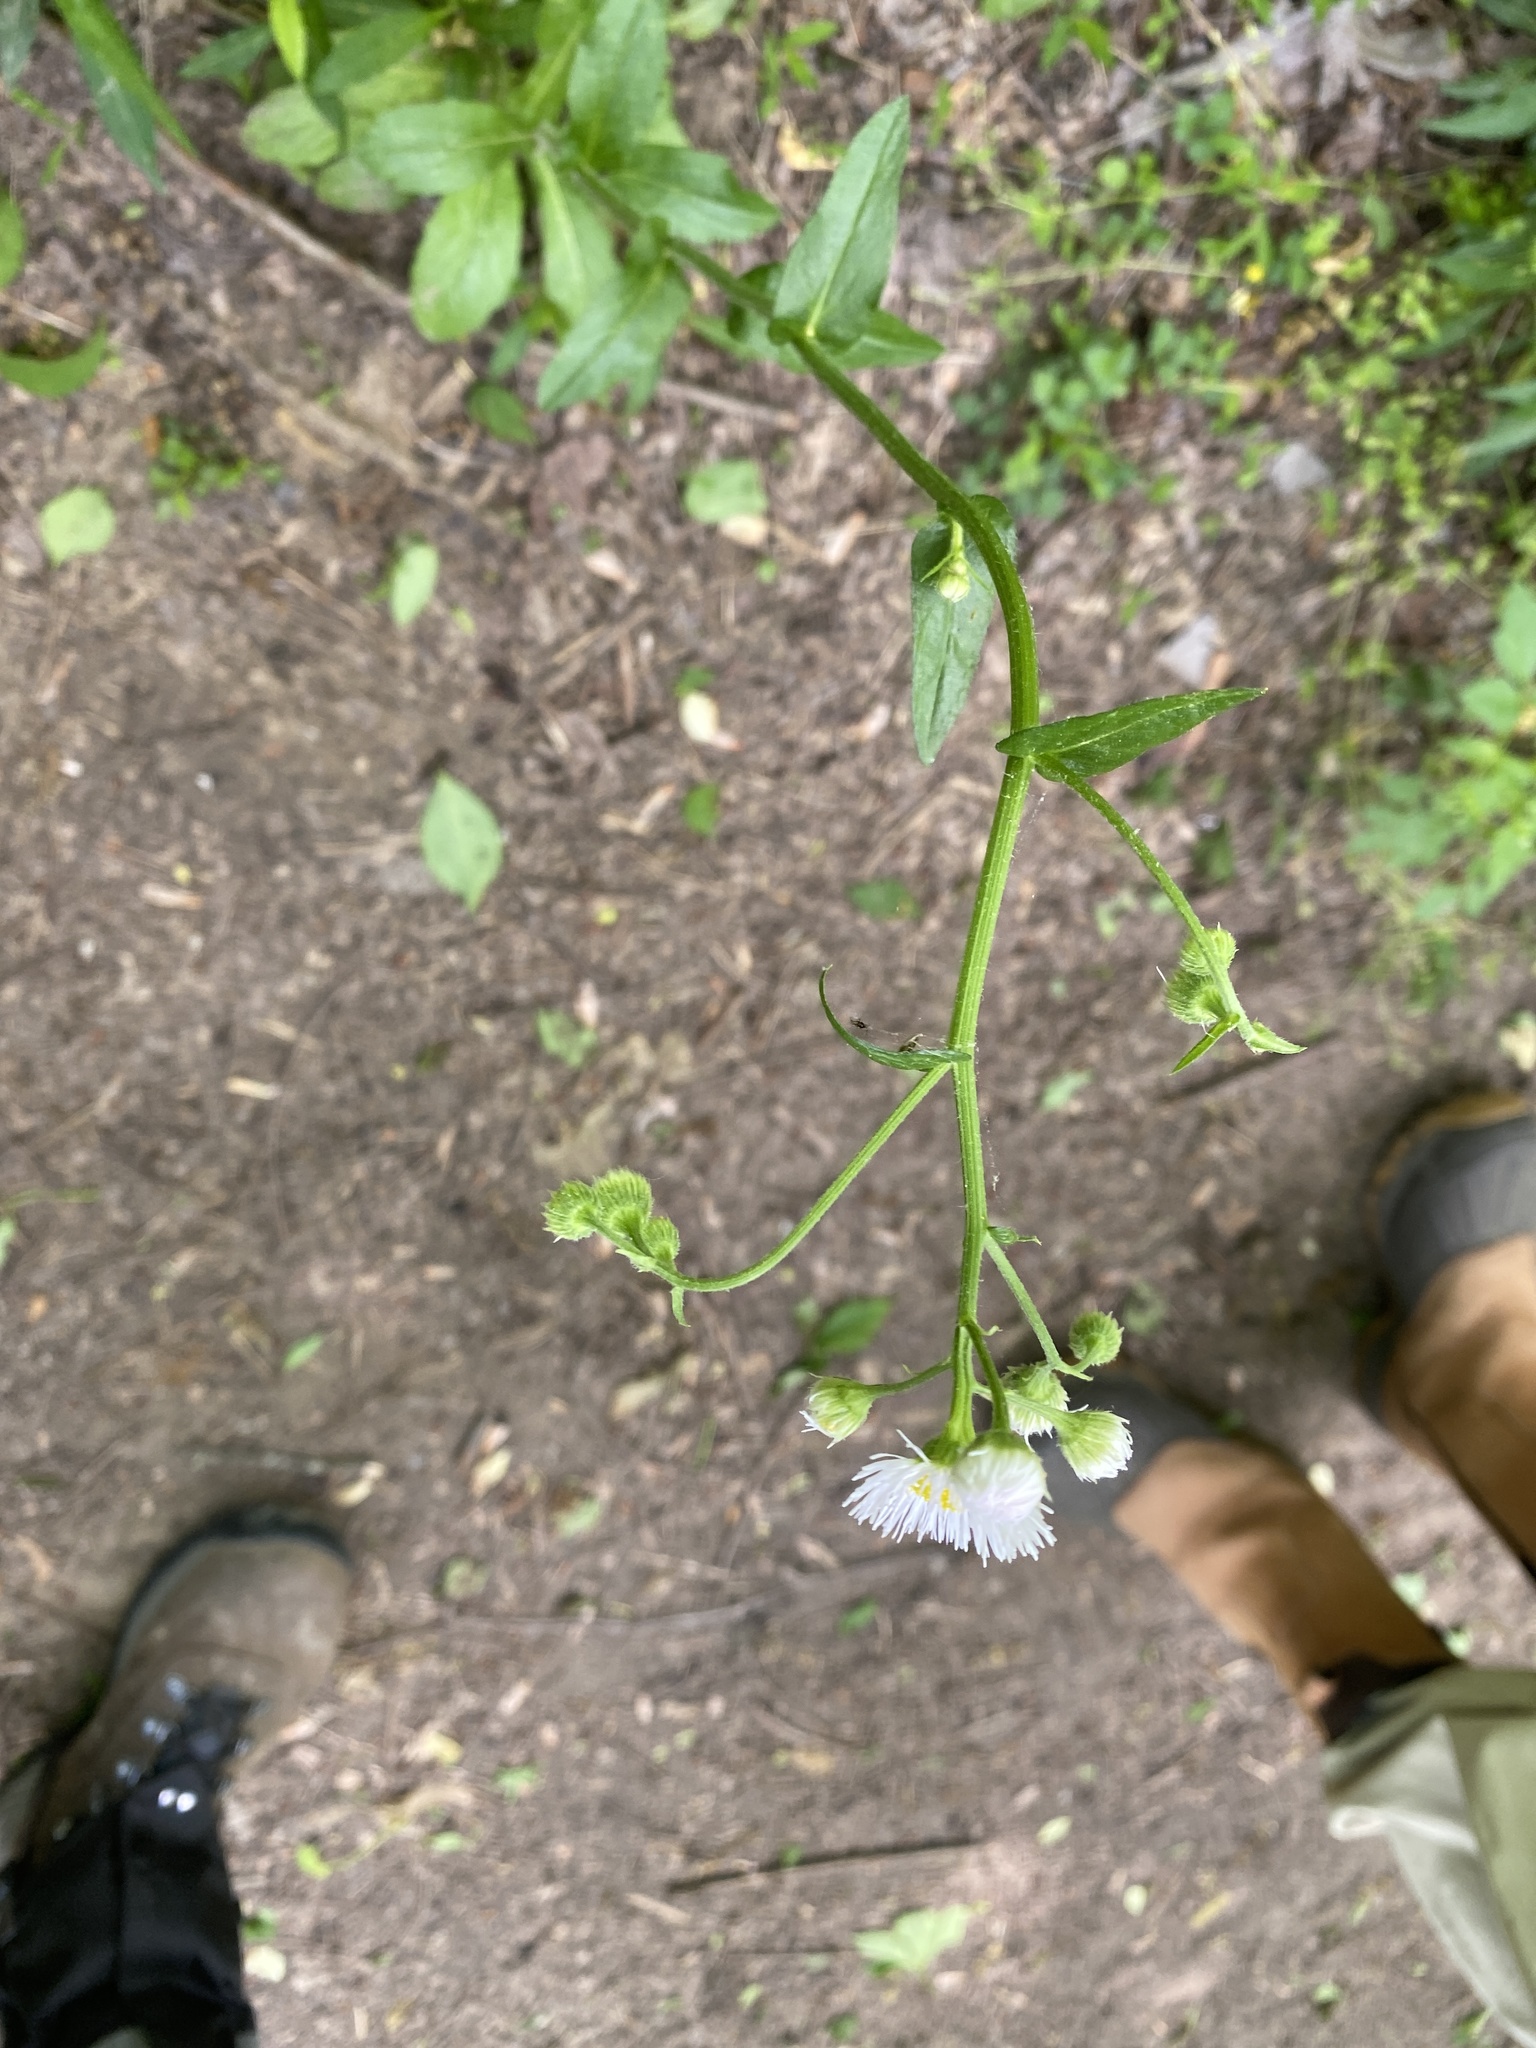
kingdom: Plantae
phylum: Tracheophyta
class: Magnoliopsida
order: Asterales
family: Asteraceae
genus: Erigeron
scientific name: Erigeron philadelphicus
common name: Robin's-plantain
